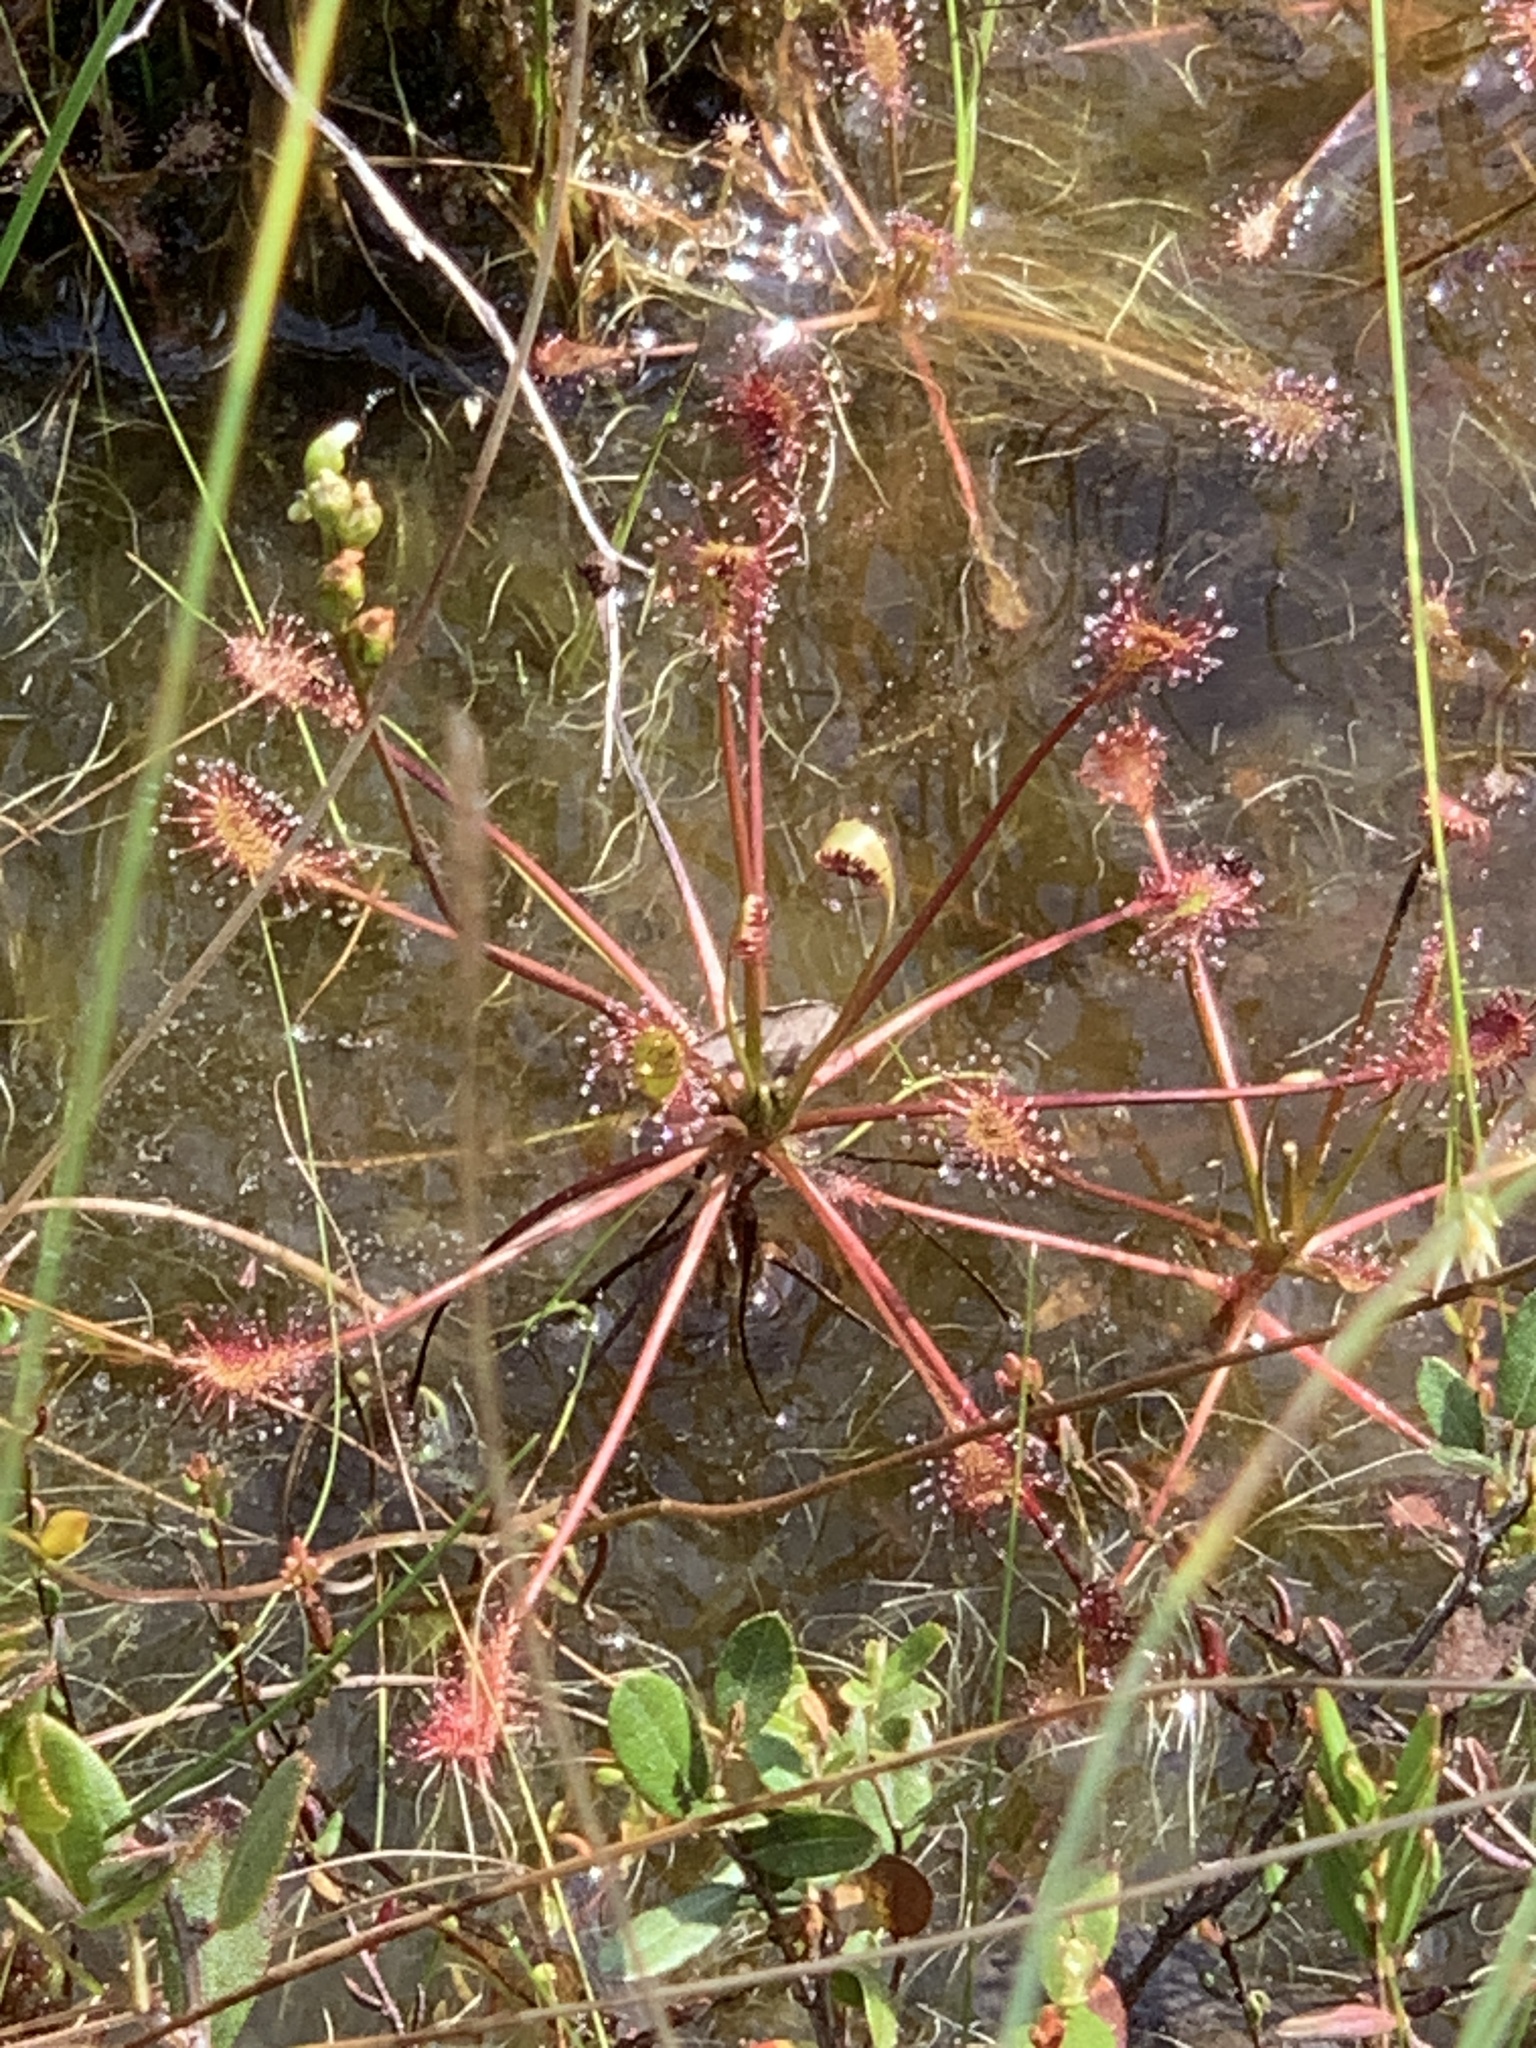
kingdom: Plantae
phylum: Tracheophyta
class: Magnoliopsida
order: Caryophyllales
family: Droseraceae
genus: Drosera
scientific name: Drosera intermedia
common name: Oblong-leaved sundew
